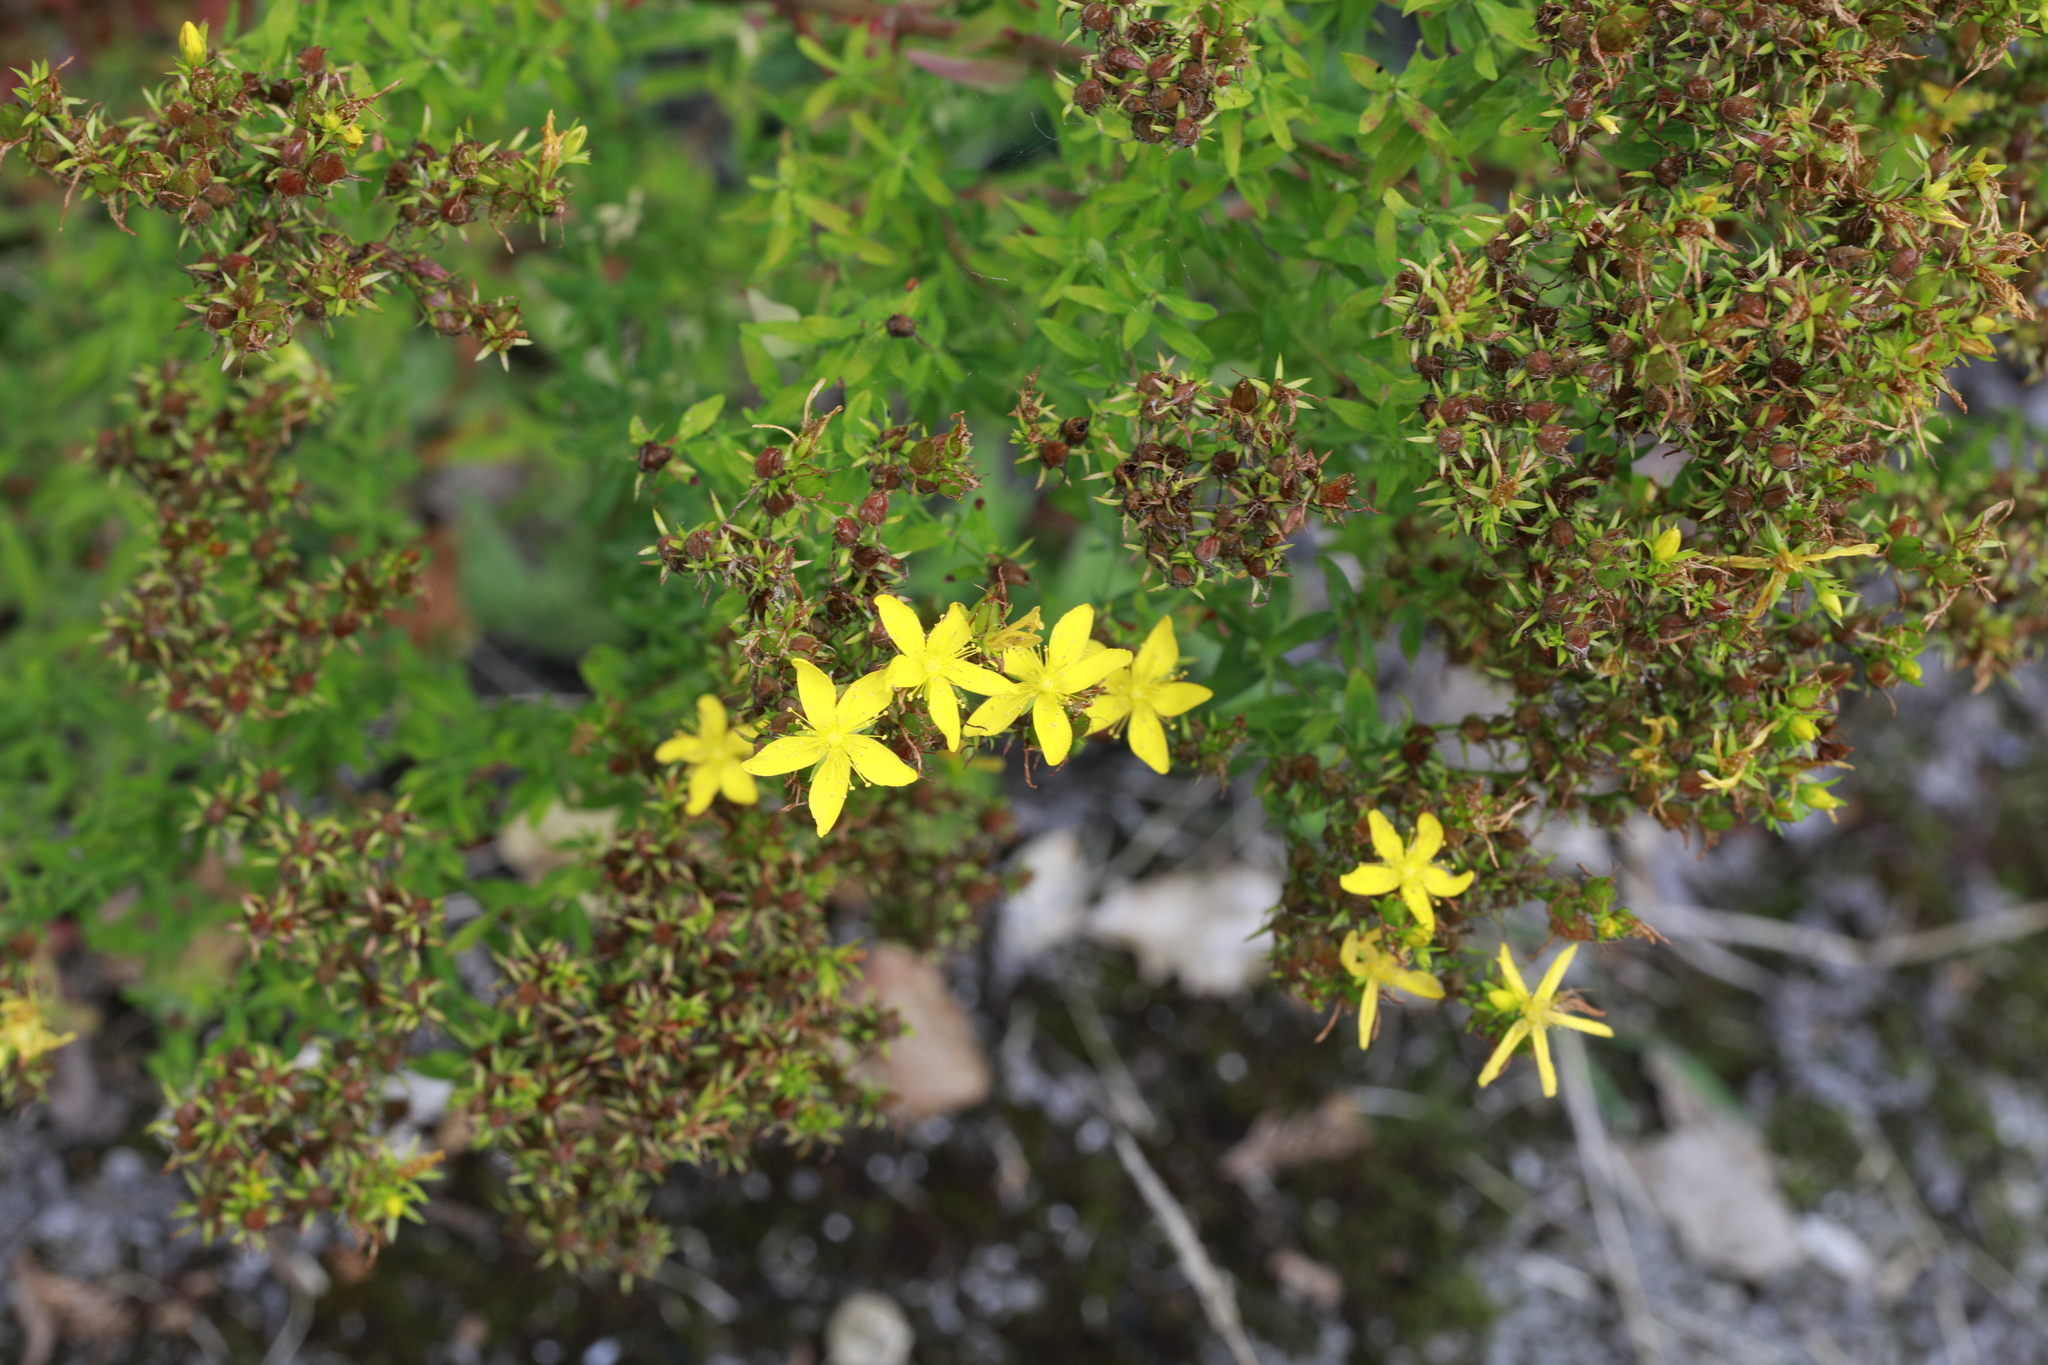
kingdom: Plantae
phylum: Tracheophyta
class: Magnoliopsida
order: Malpighiales
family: Hypericaceae
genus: Hypericum
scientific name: Hypericum perforatum
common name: Common st. johnswort
